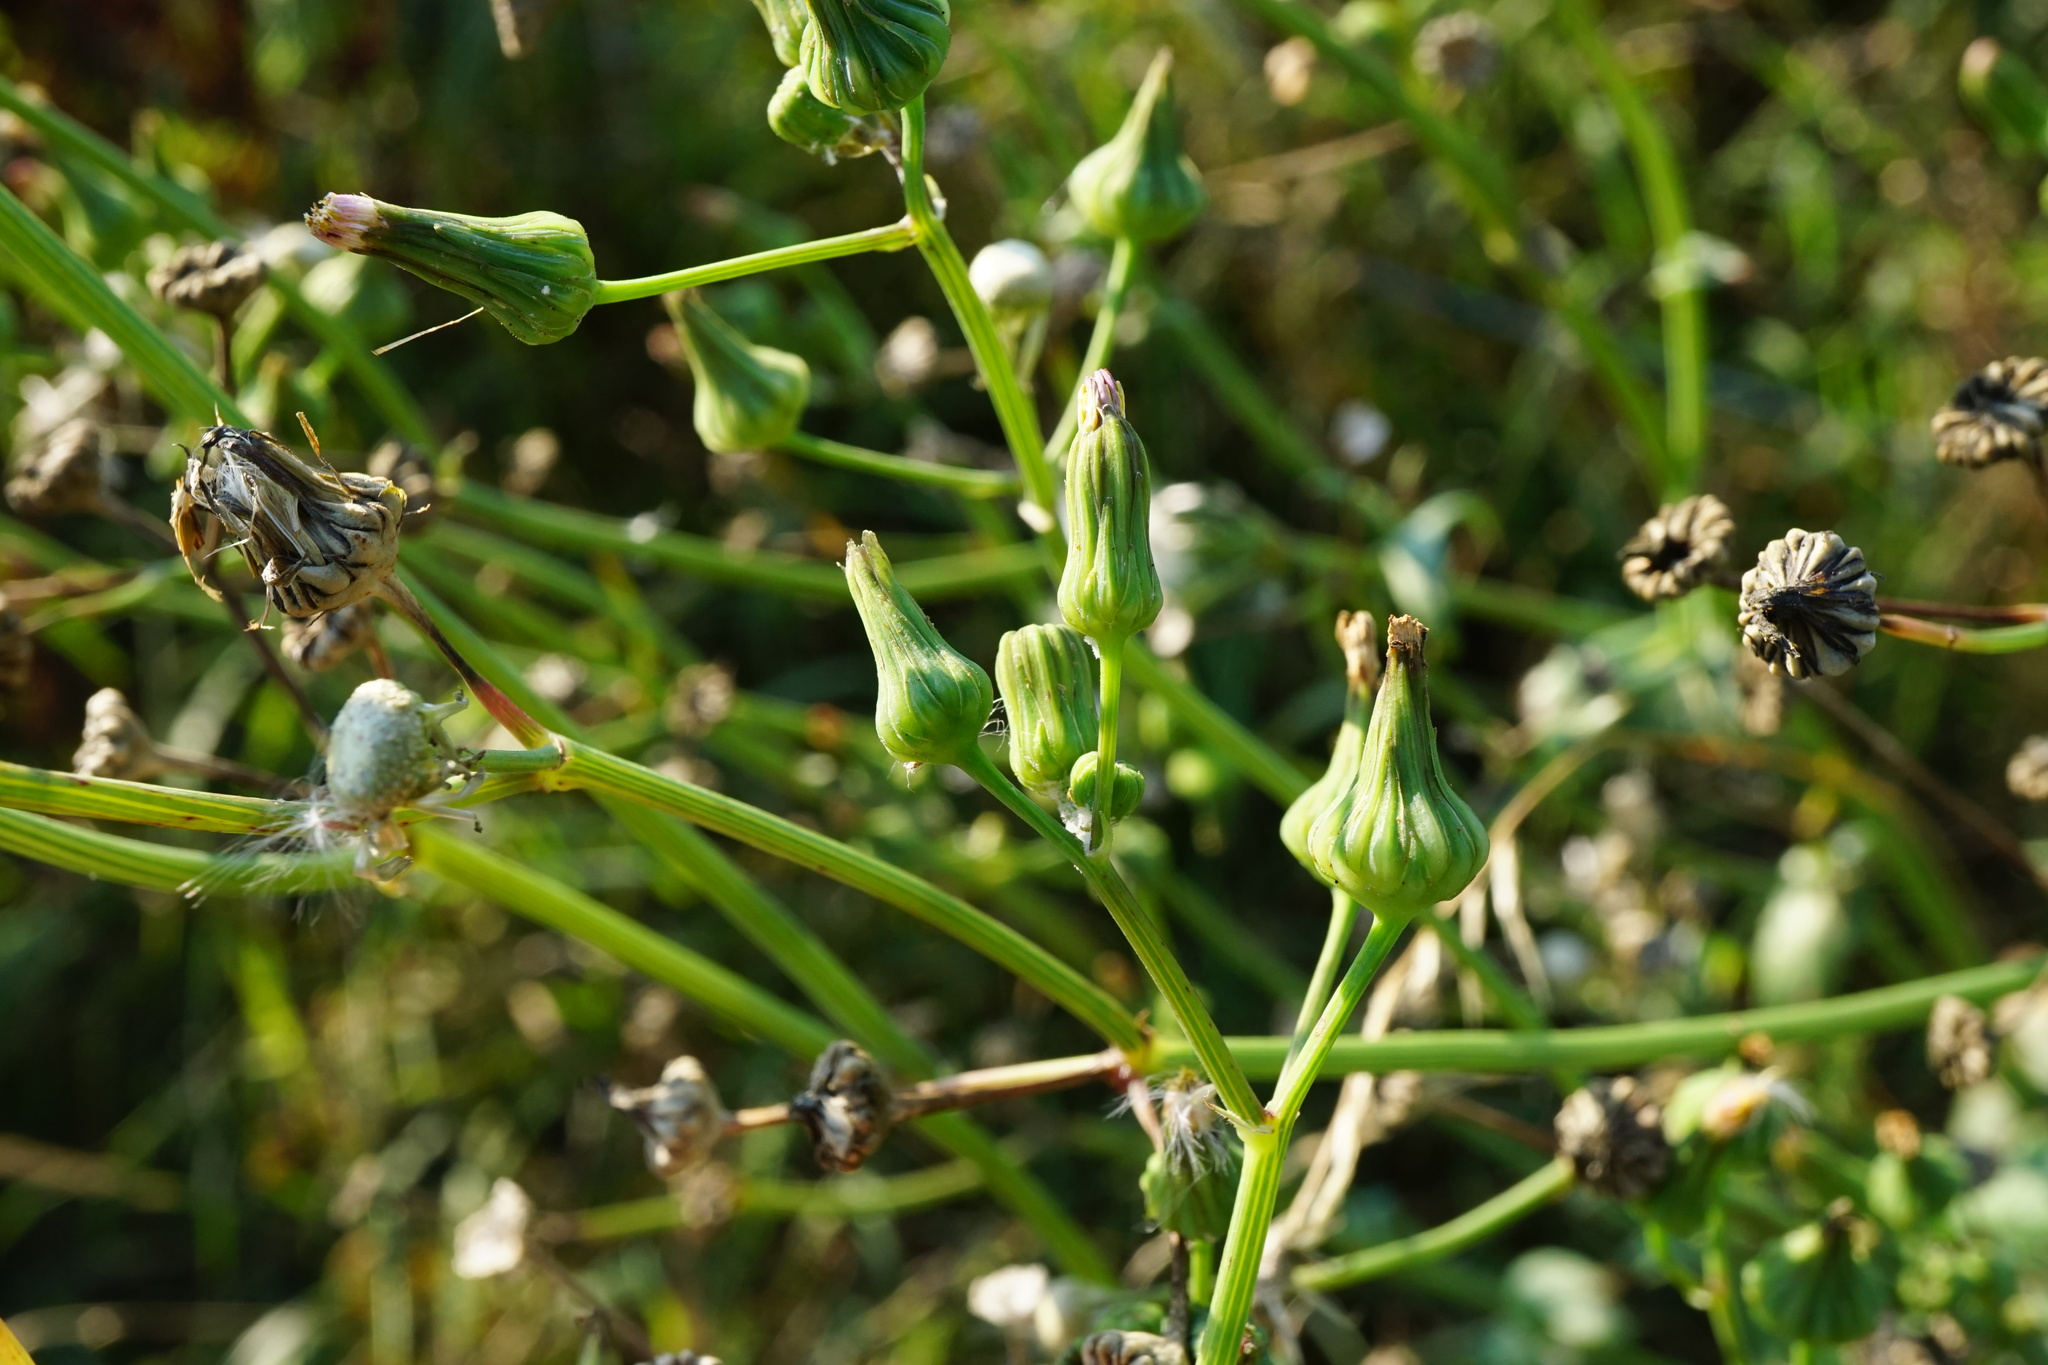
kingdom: Plantae
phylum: Tracheophyta
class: Magnoliopsida
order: Asterales
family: Asteraceae
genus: Sonchus
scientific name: Sonchus oleraceus
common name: Common sowthistle
